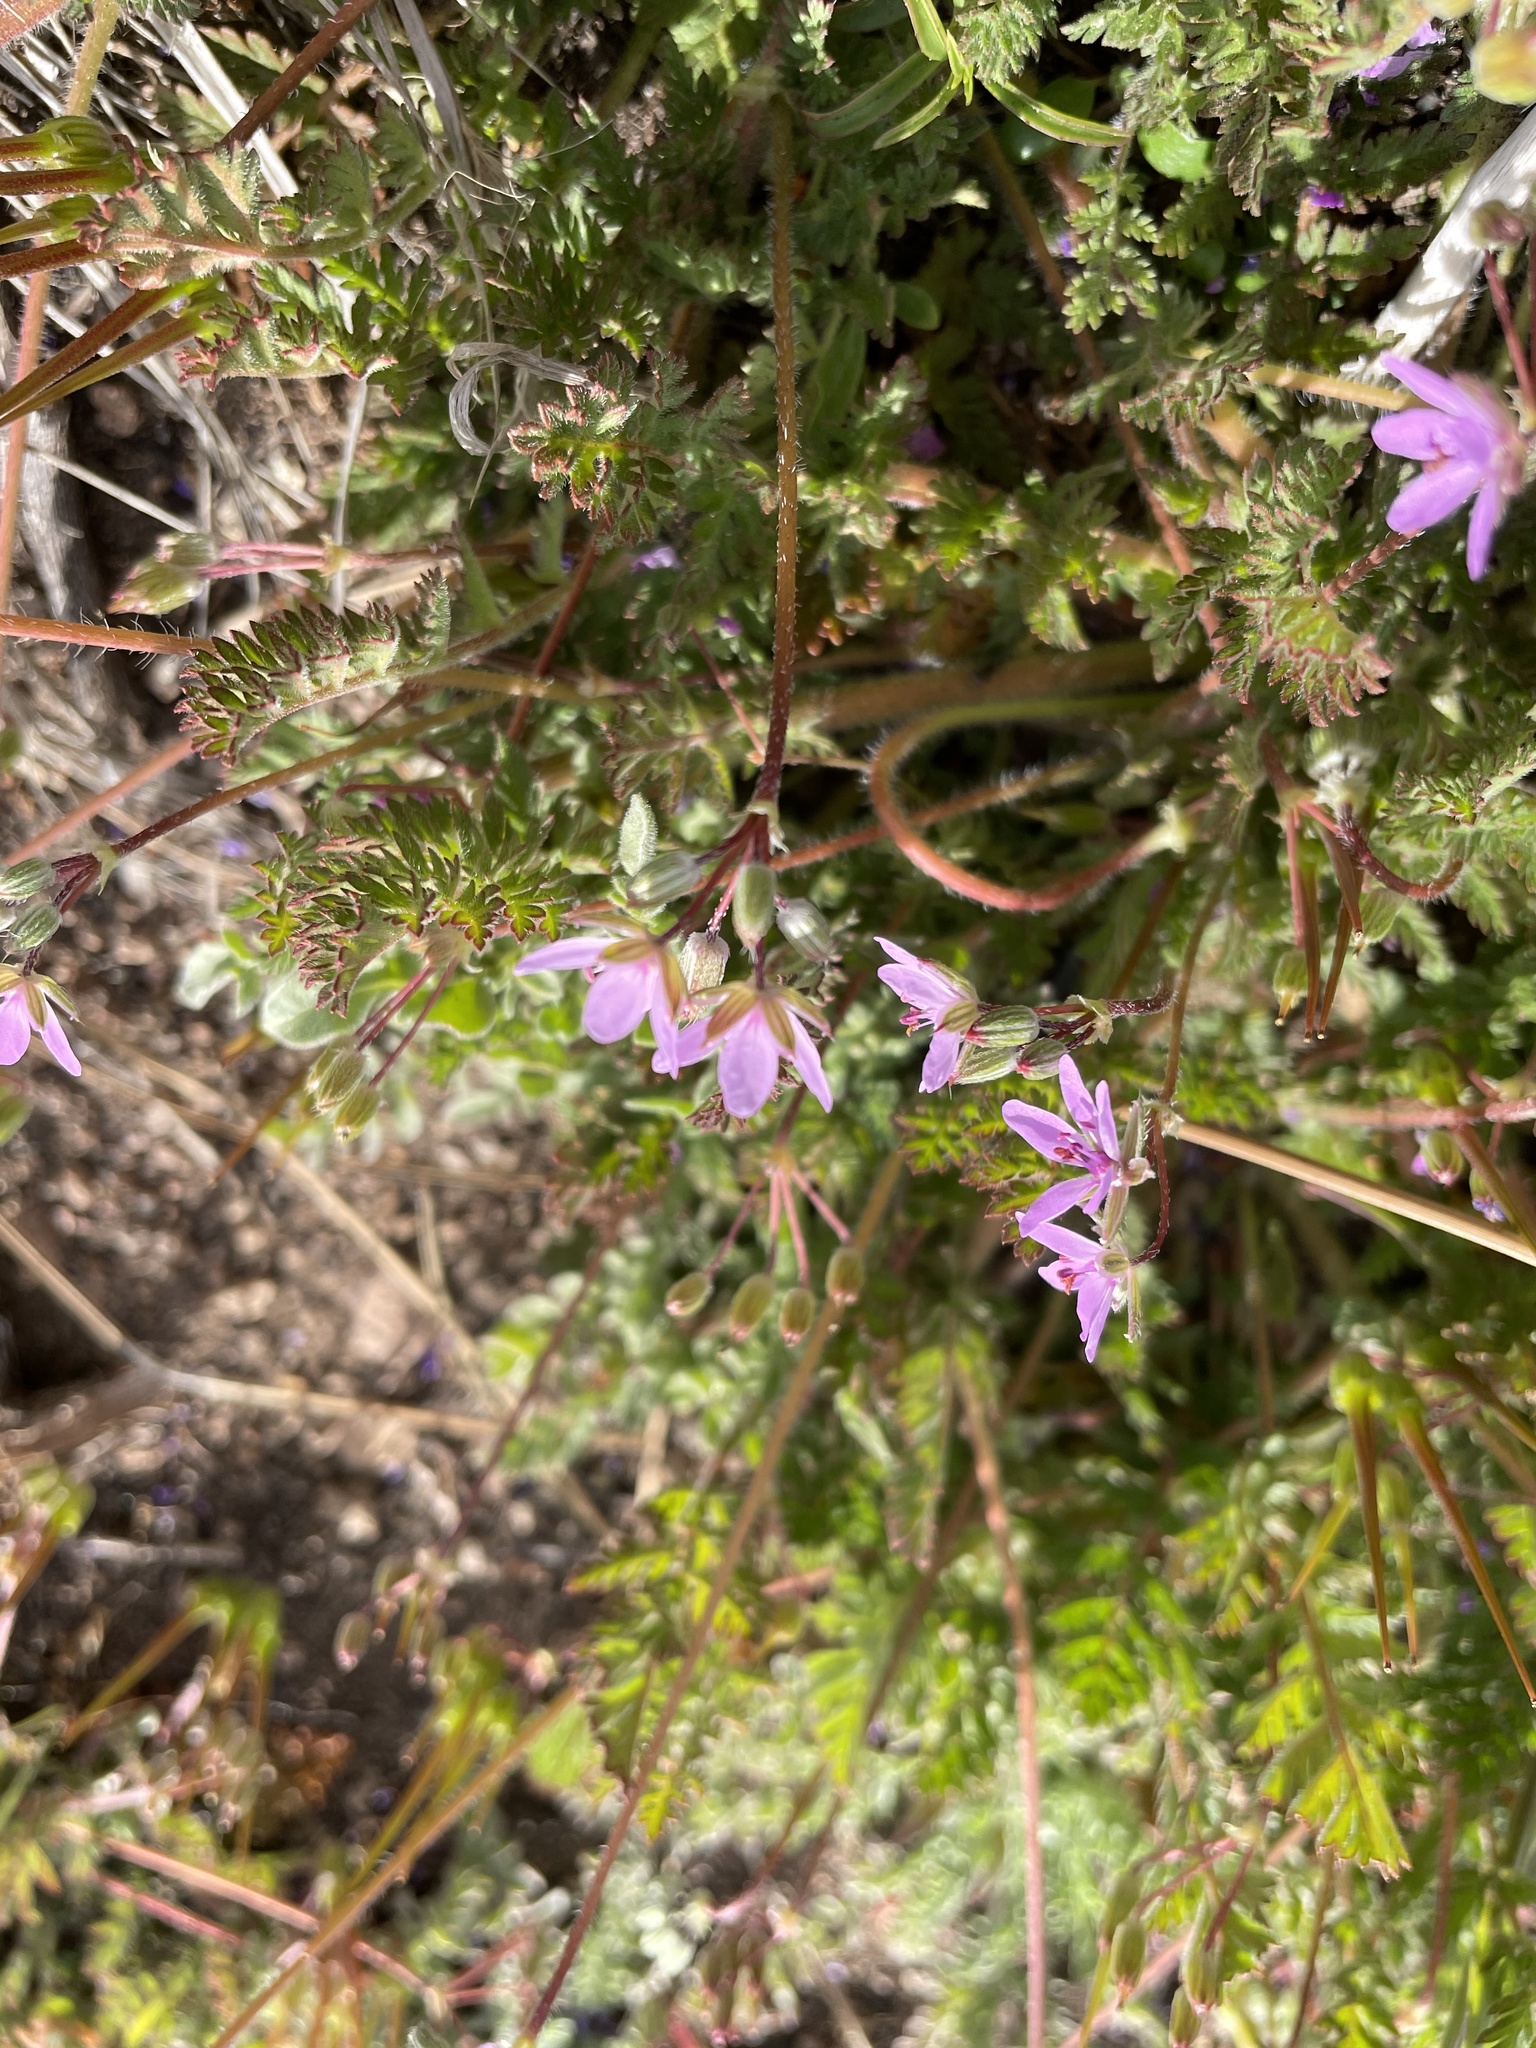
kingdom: Plantae
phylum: Tracheophyta
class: Magnoliopsida
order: Geraniales
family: Geraniaceae
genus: Erodium
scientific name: Erodium cicutarium
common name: Common stork's-bill
